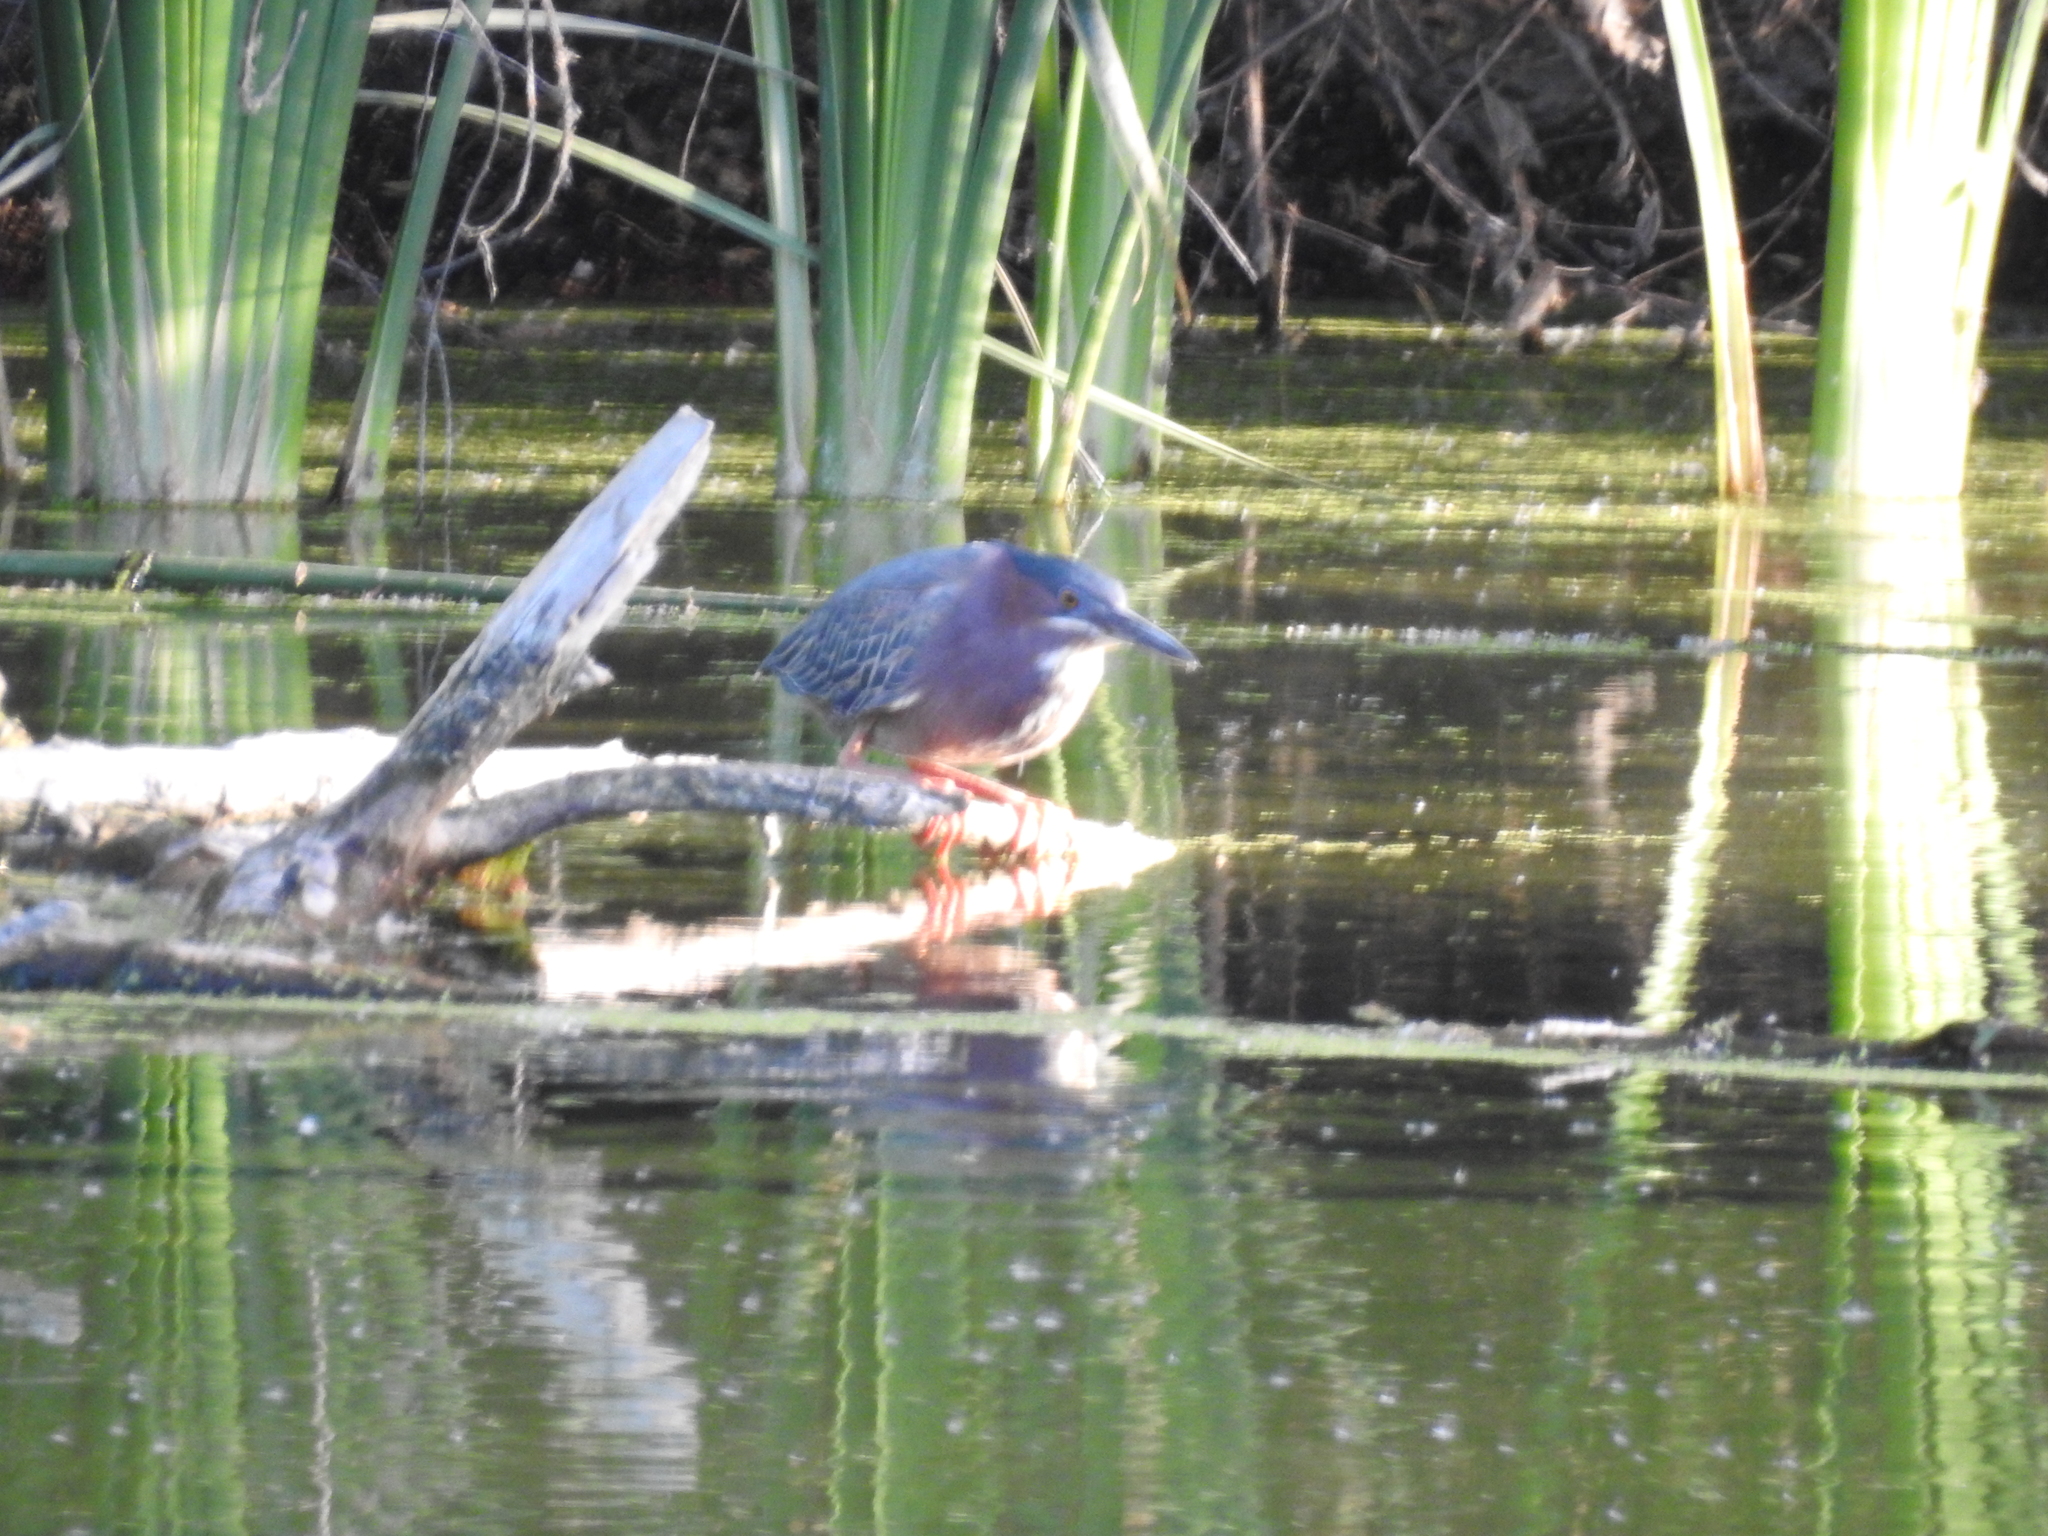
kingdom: Animalia
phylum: Chordata
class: Aves
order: Pelecaniformes
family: Ardeidae
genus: Butorides
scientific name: Butorides virescens
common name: Green heron
